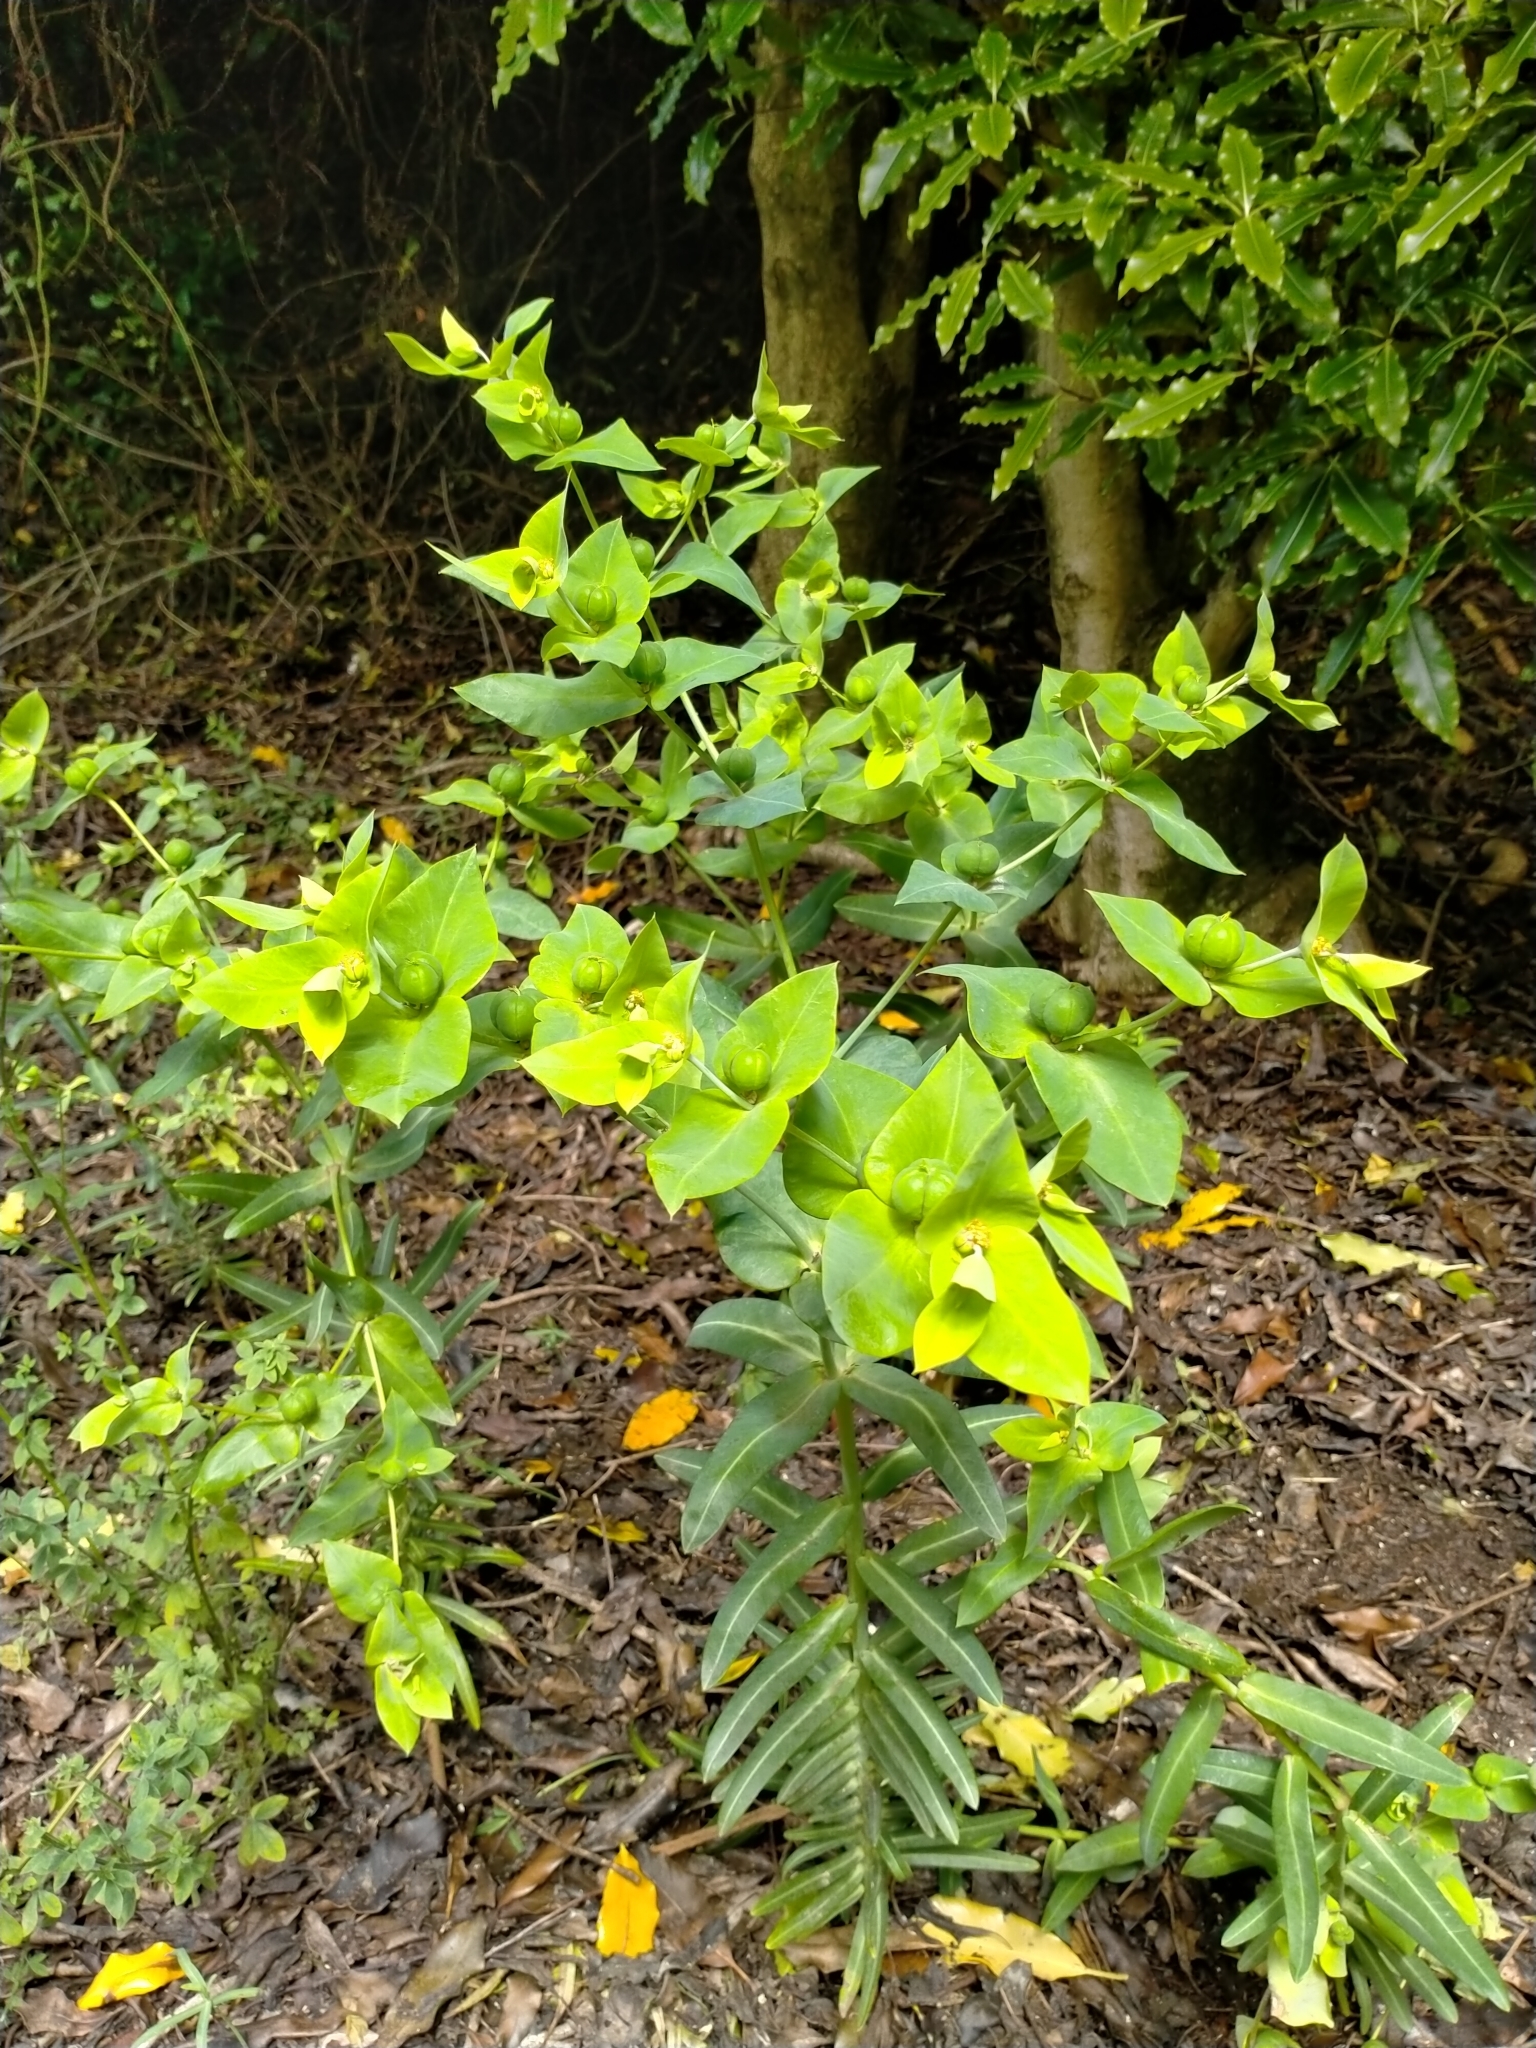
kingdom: Plantae
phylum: Tracheophyta
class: Magnoliopsida
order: Malpighiales
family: Euphorbiaceae
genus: Euphorbia
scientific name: Euphorbia lathyris
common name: Caper spurge
